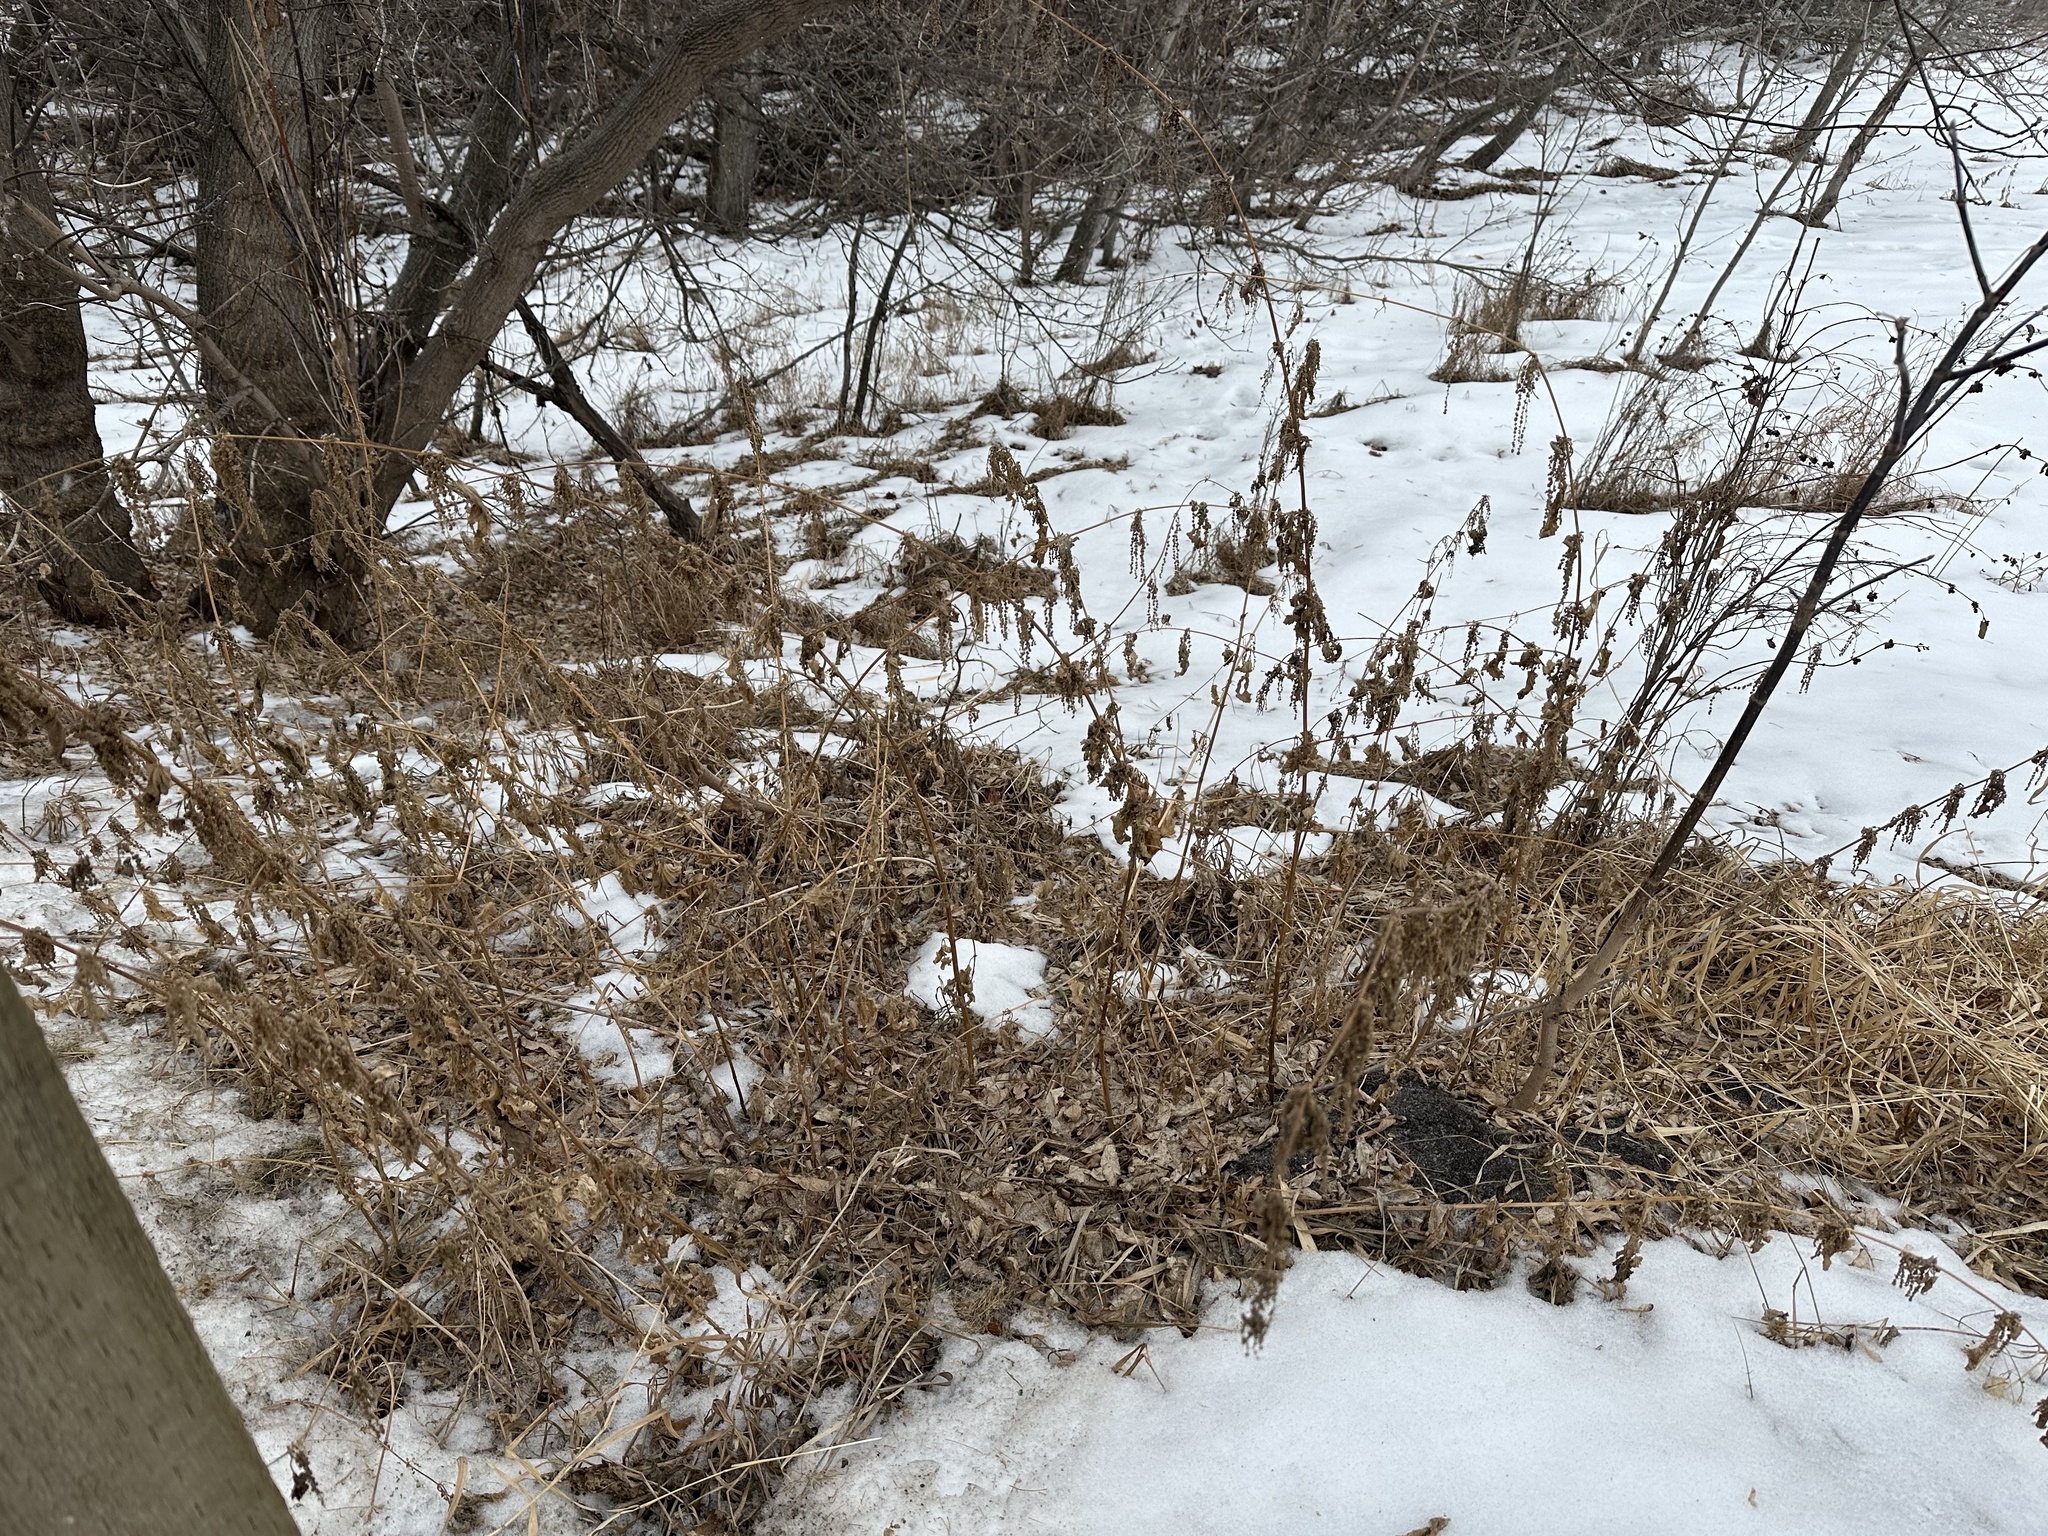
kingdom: Plantae
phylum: Tracheophyta
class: Magnoliopsida
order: Rosales
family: Urticaceae
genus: Urtica
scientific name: Urtica gracilis
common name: Slender stinging nettle
